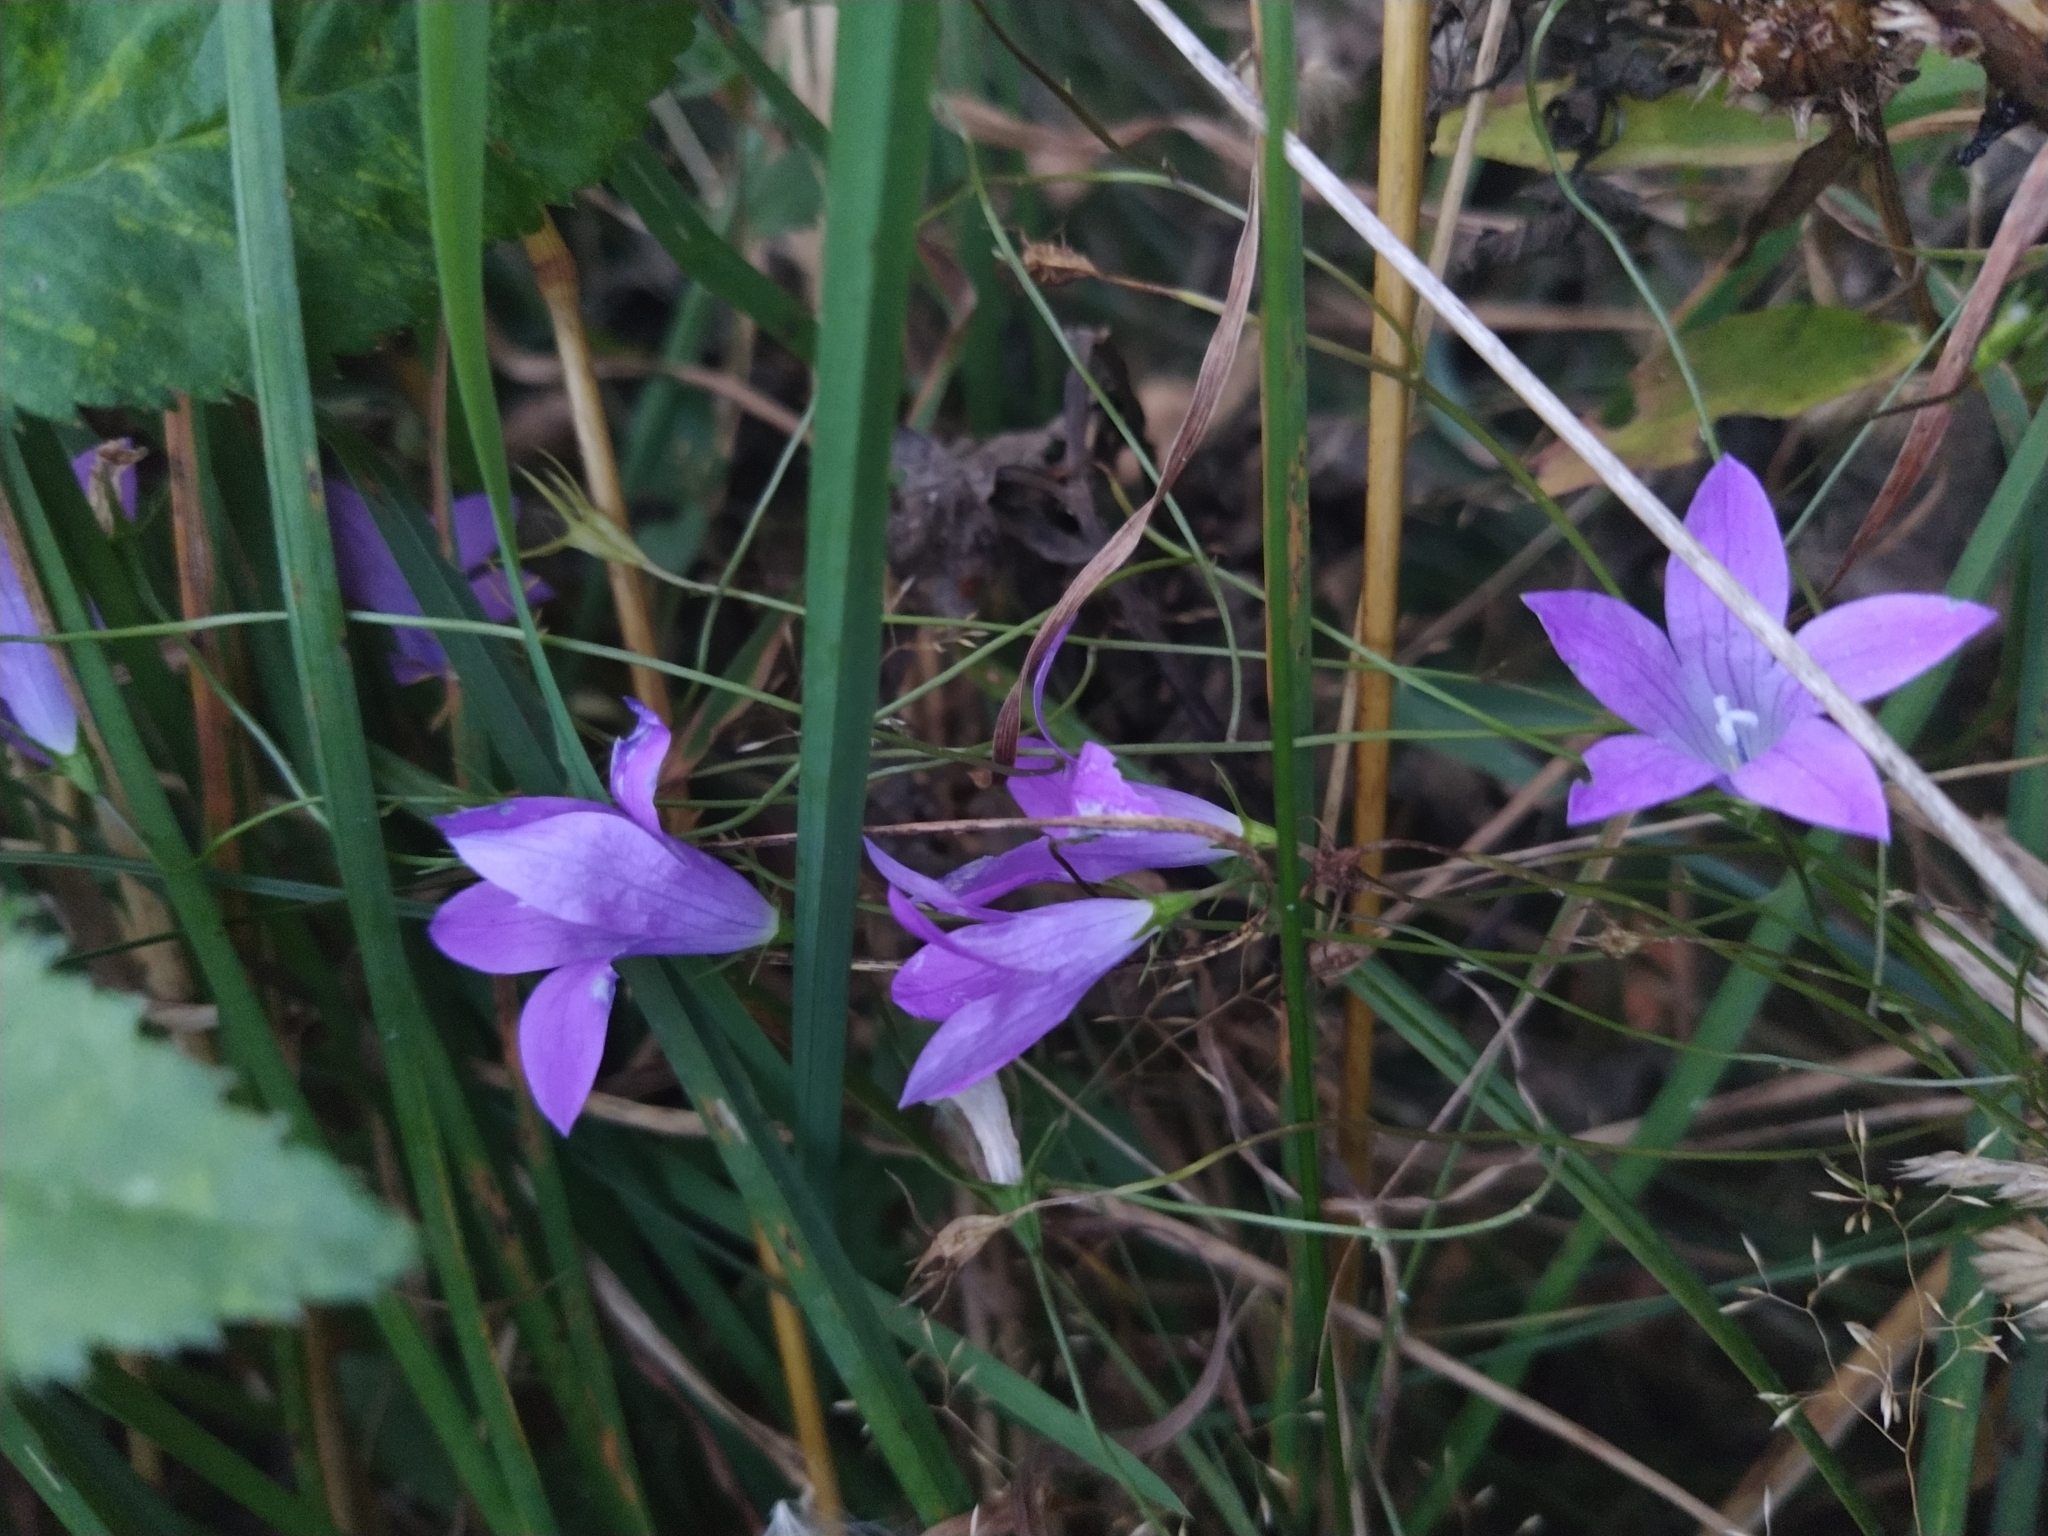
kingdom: Plantae
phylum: Tracheophyta
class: Magnoliopsida
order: Asterales
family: Campanulaceae
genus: Campanula
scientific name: Campanula patula
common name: Spreading bellflower
